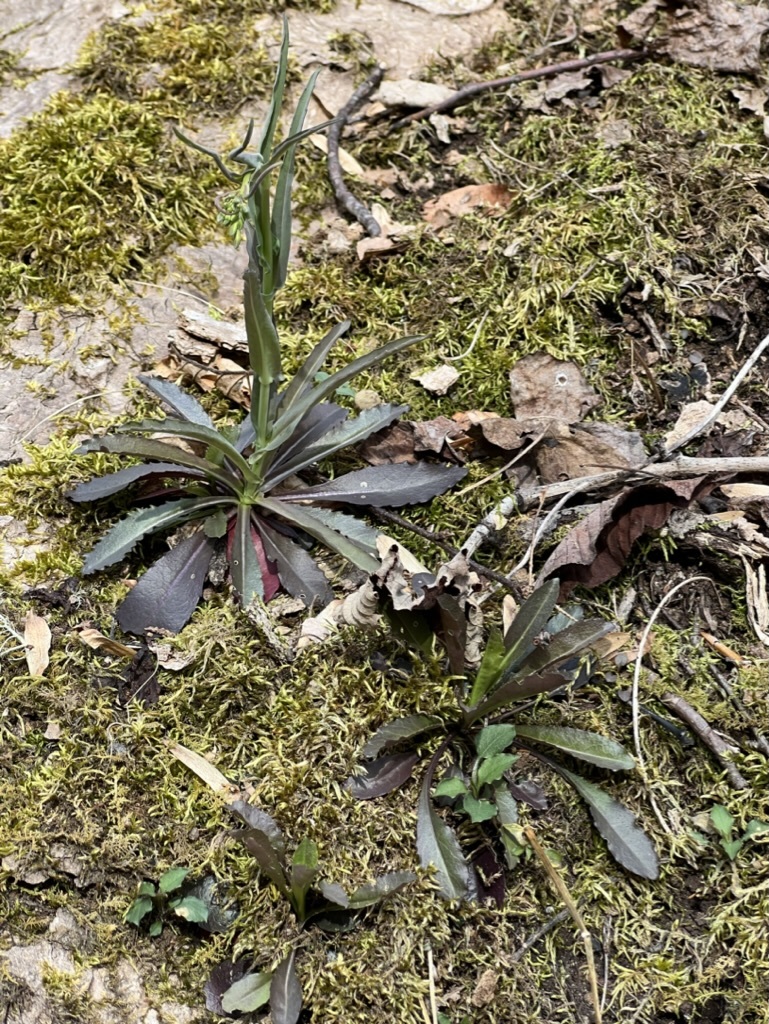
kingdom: Plantae
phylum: Tracheophyta
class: Magnoliopsida
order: Brassicales
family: Brassicaceae
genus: Borodinia
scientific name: Borodinia laevigata
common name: Smooth rockcress
